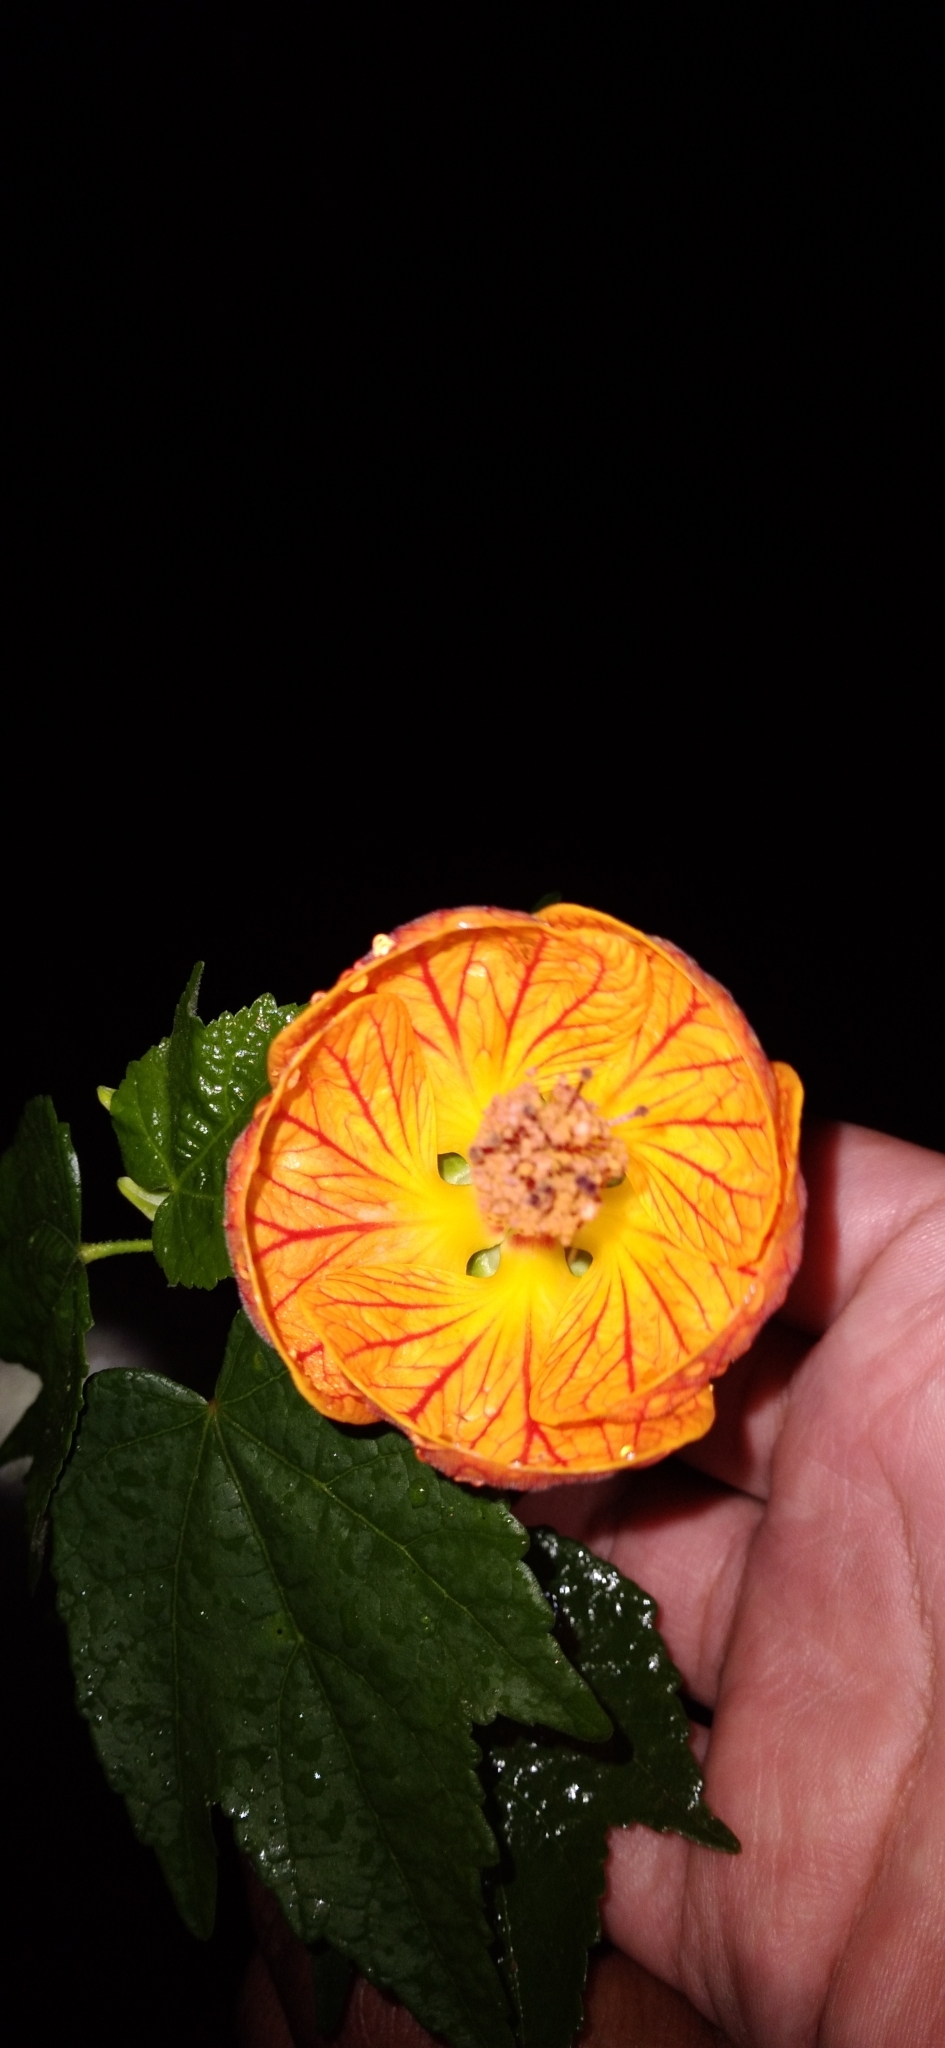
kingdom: Plantae
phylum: Tracheophyta
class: Magnoliopsida
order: Malvales
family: Malvaceae
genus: Callianthe
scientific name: Callianthe picta
